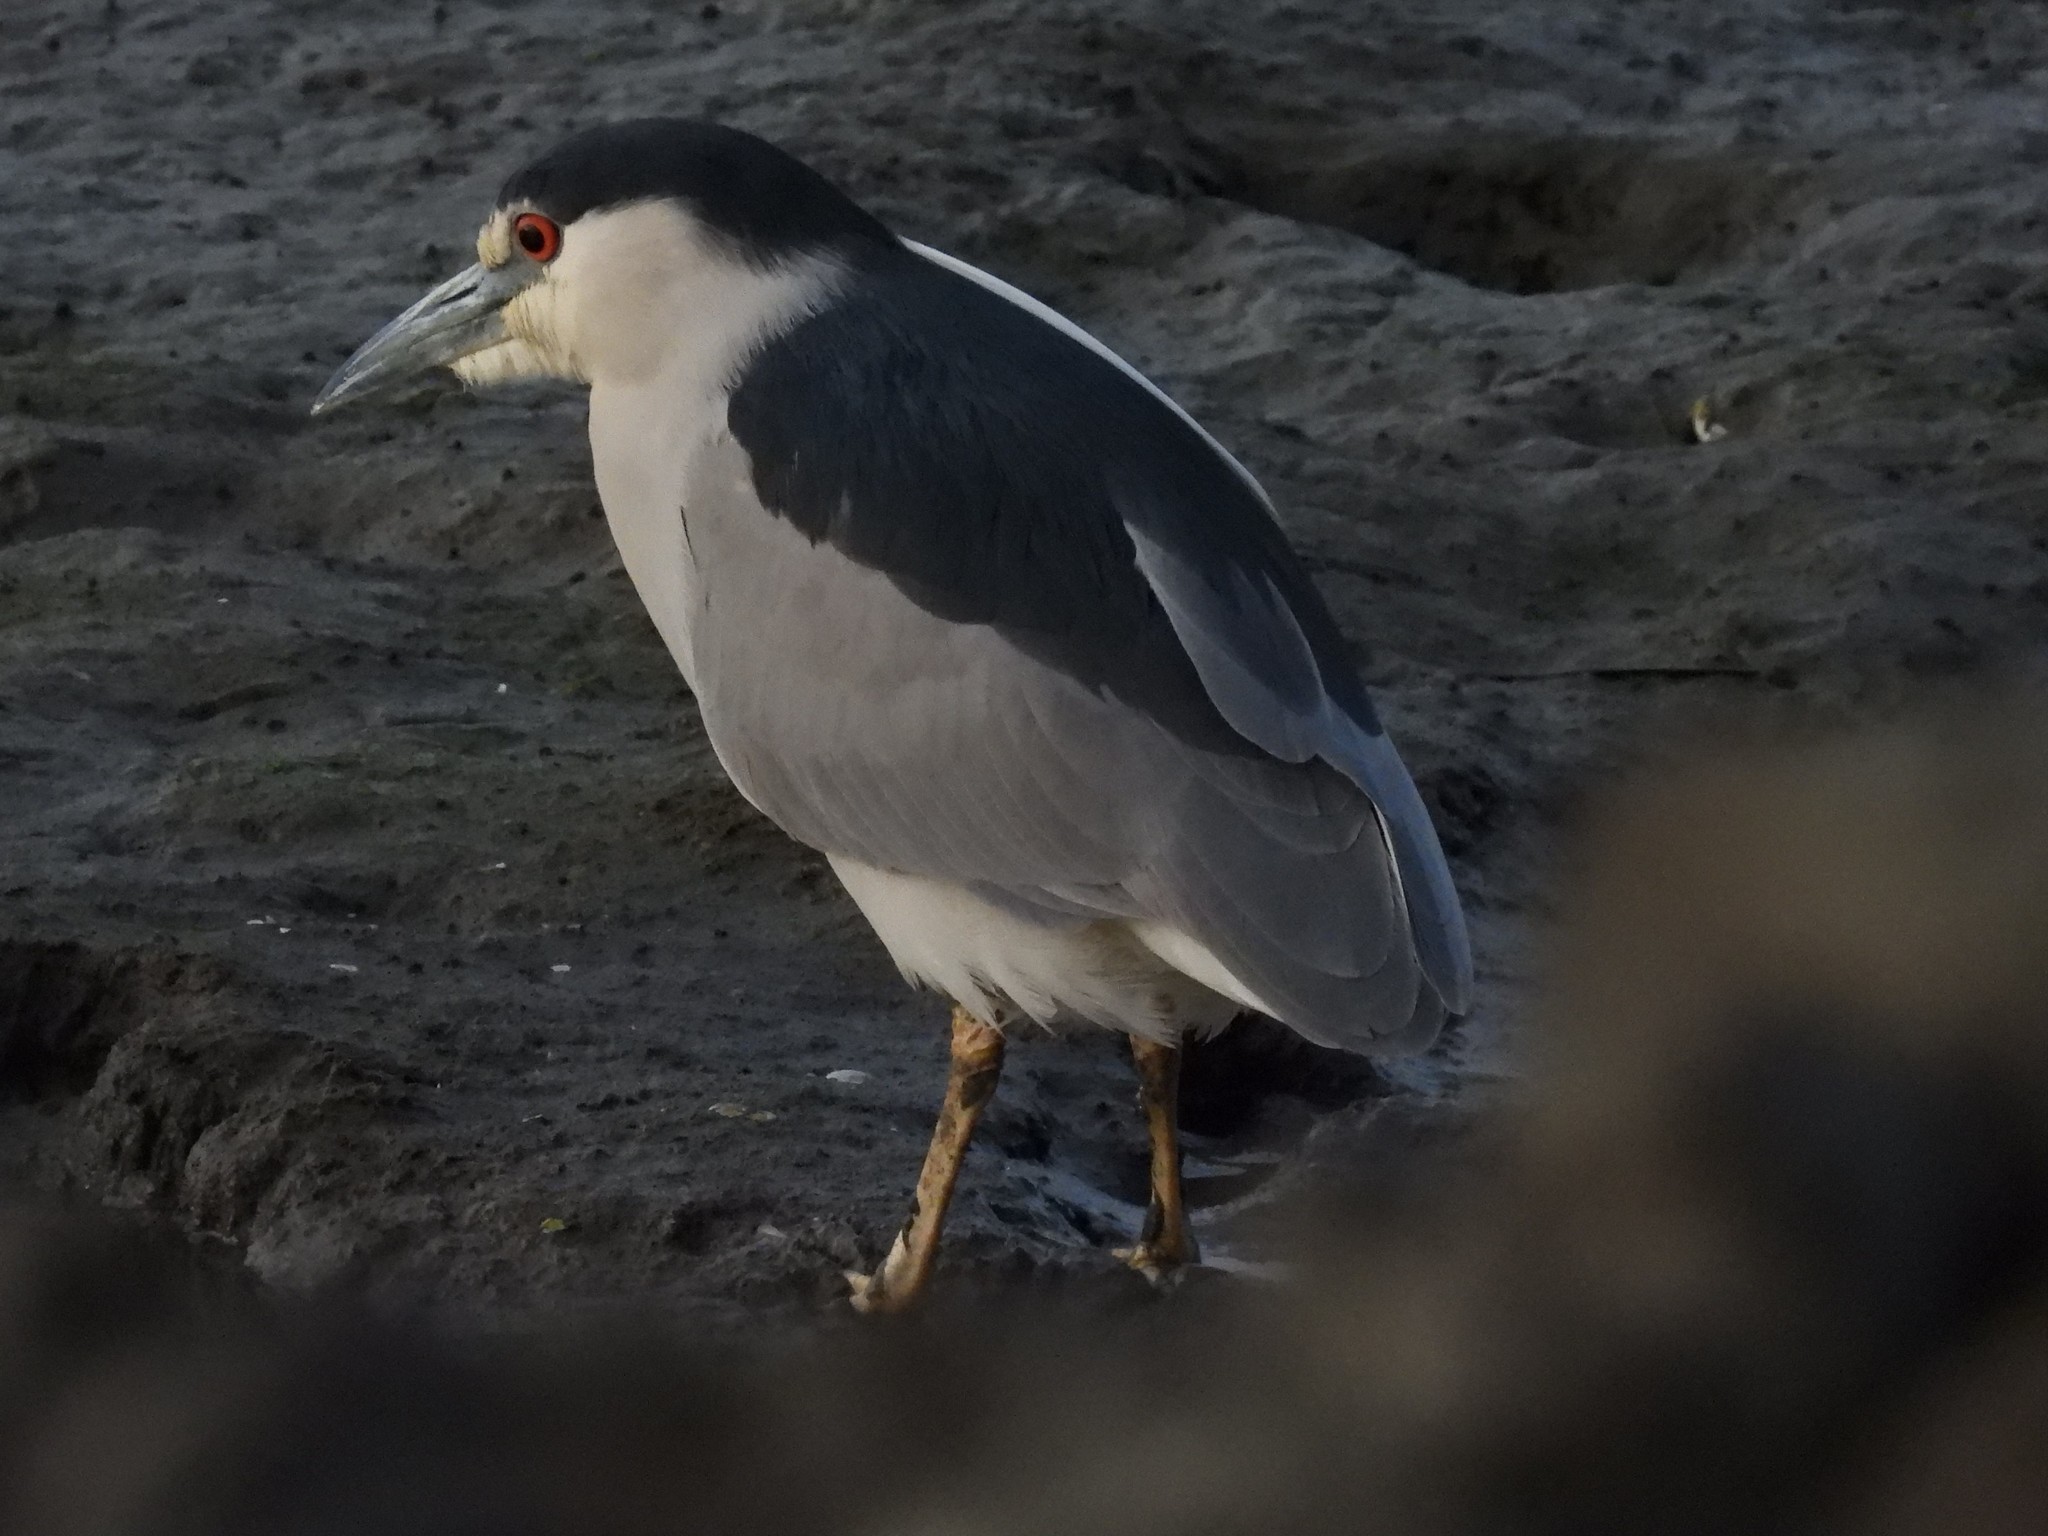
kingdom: Animalia
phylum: Chordata
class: Aves
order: Pelecaniformes
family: Ardeidae
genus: Nycticorax
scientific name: Nycticorax nycticorax
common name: Black-crowned night heron
